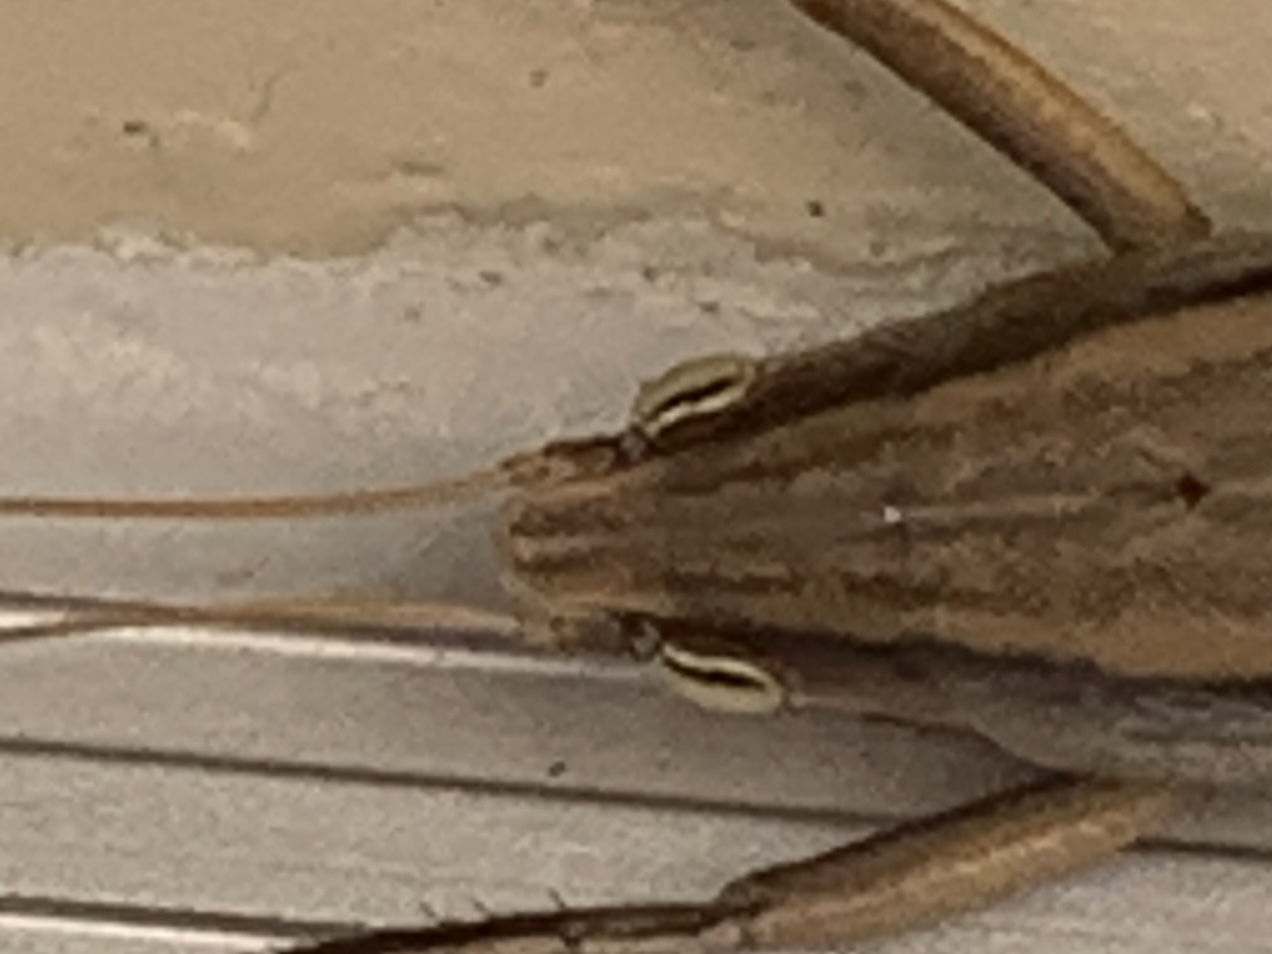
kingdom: Animalia
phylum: Arthropoda
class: Insecta
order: Orthoptera
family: Tettigoniidae
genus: Neoconocephalus
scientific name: Neoconocephalus triops
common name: Broad-tipped conehead
